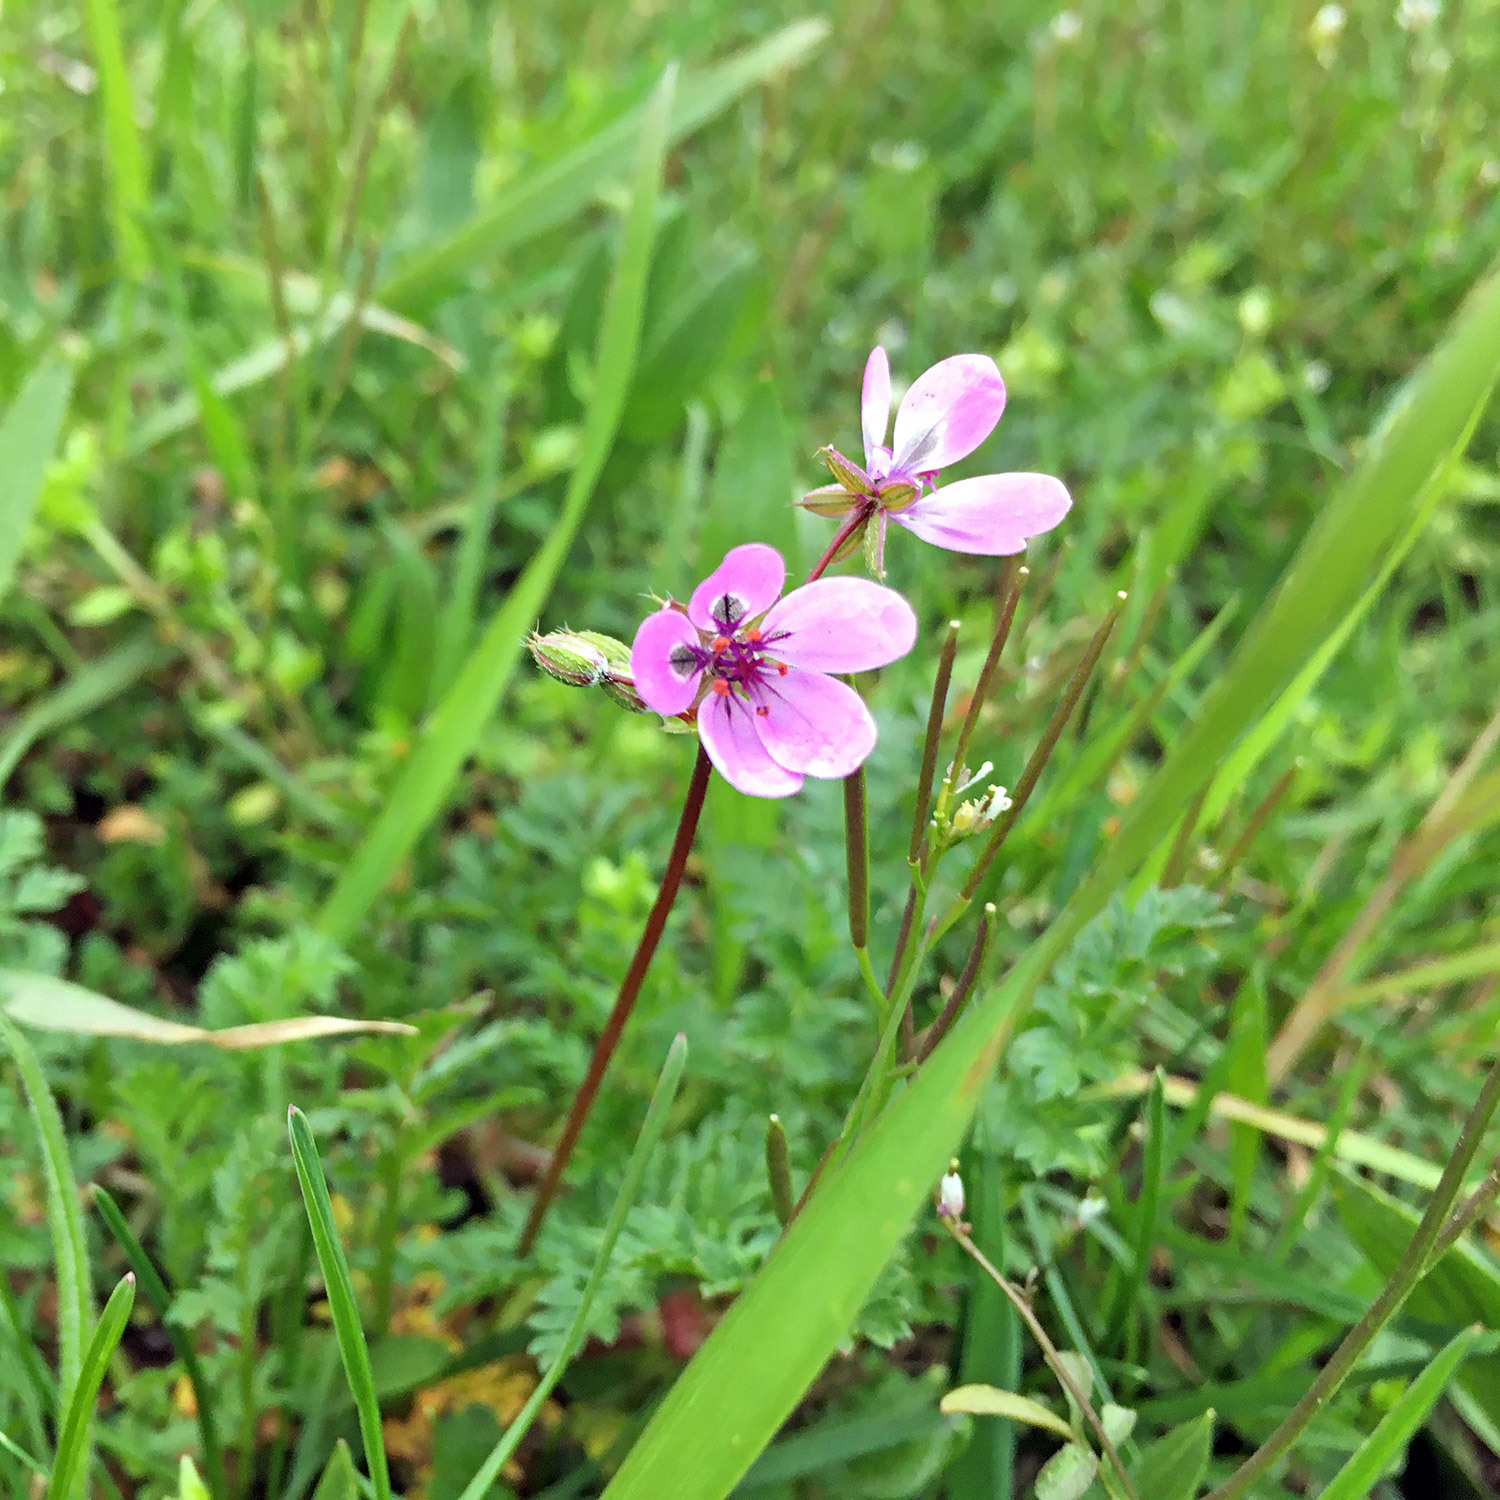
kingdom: Plantae
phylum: Tracheophyta
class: Magnoliopsida
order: Geraniales
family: Geraniaceae
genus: Erodium
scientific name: Erodium cicutarium
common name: Common stork's-bill
